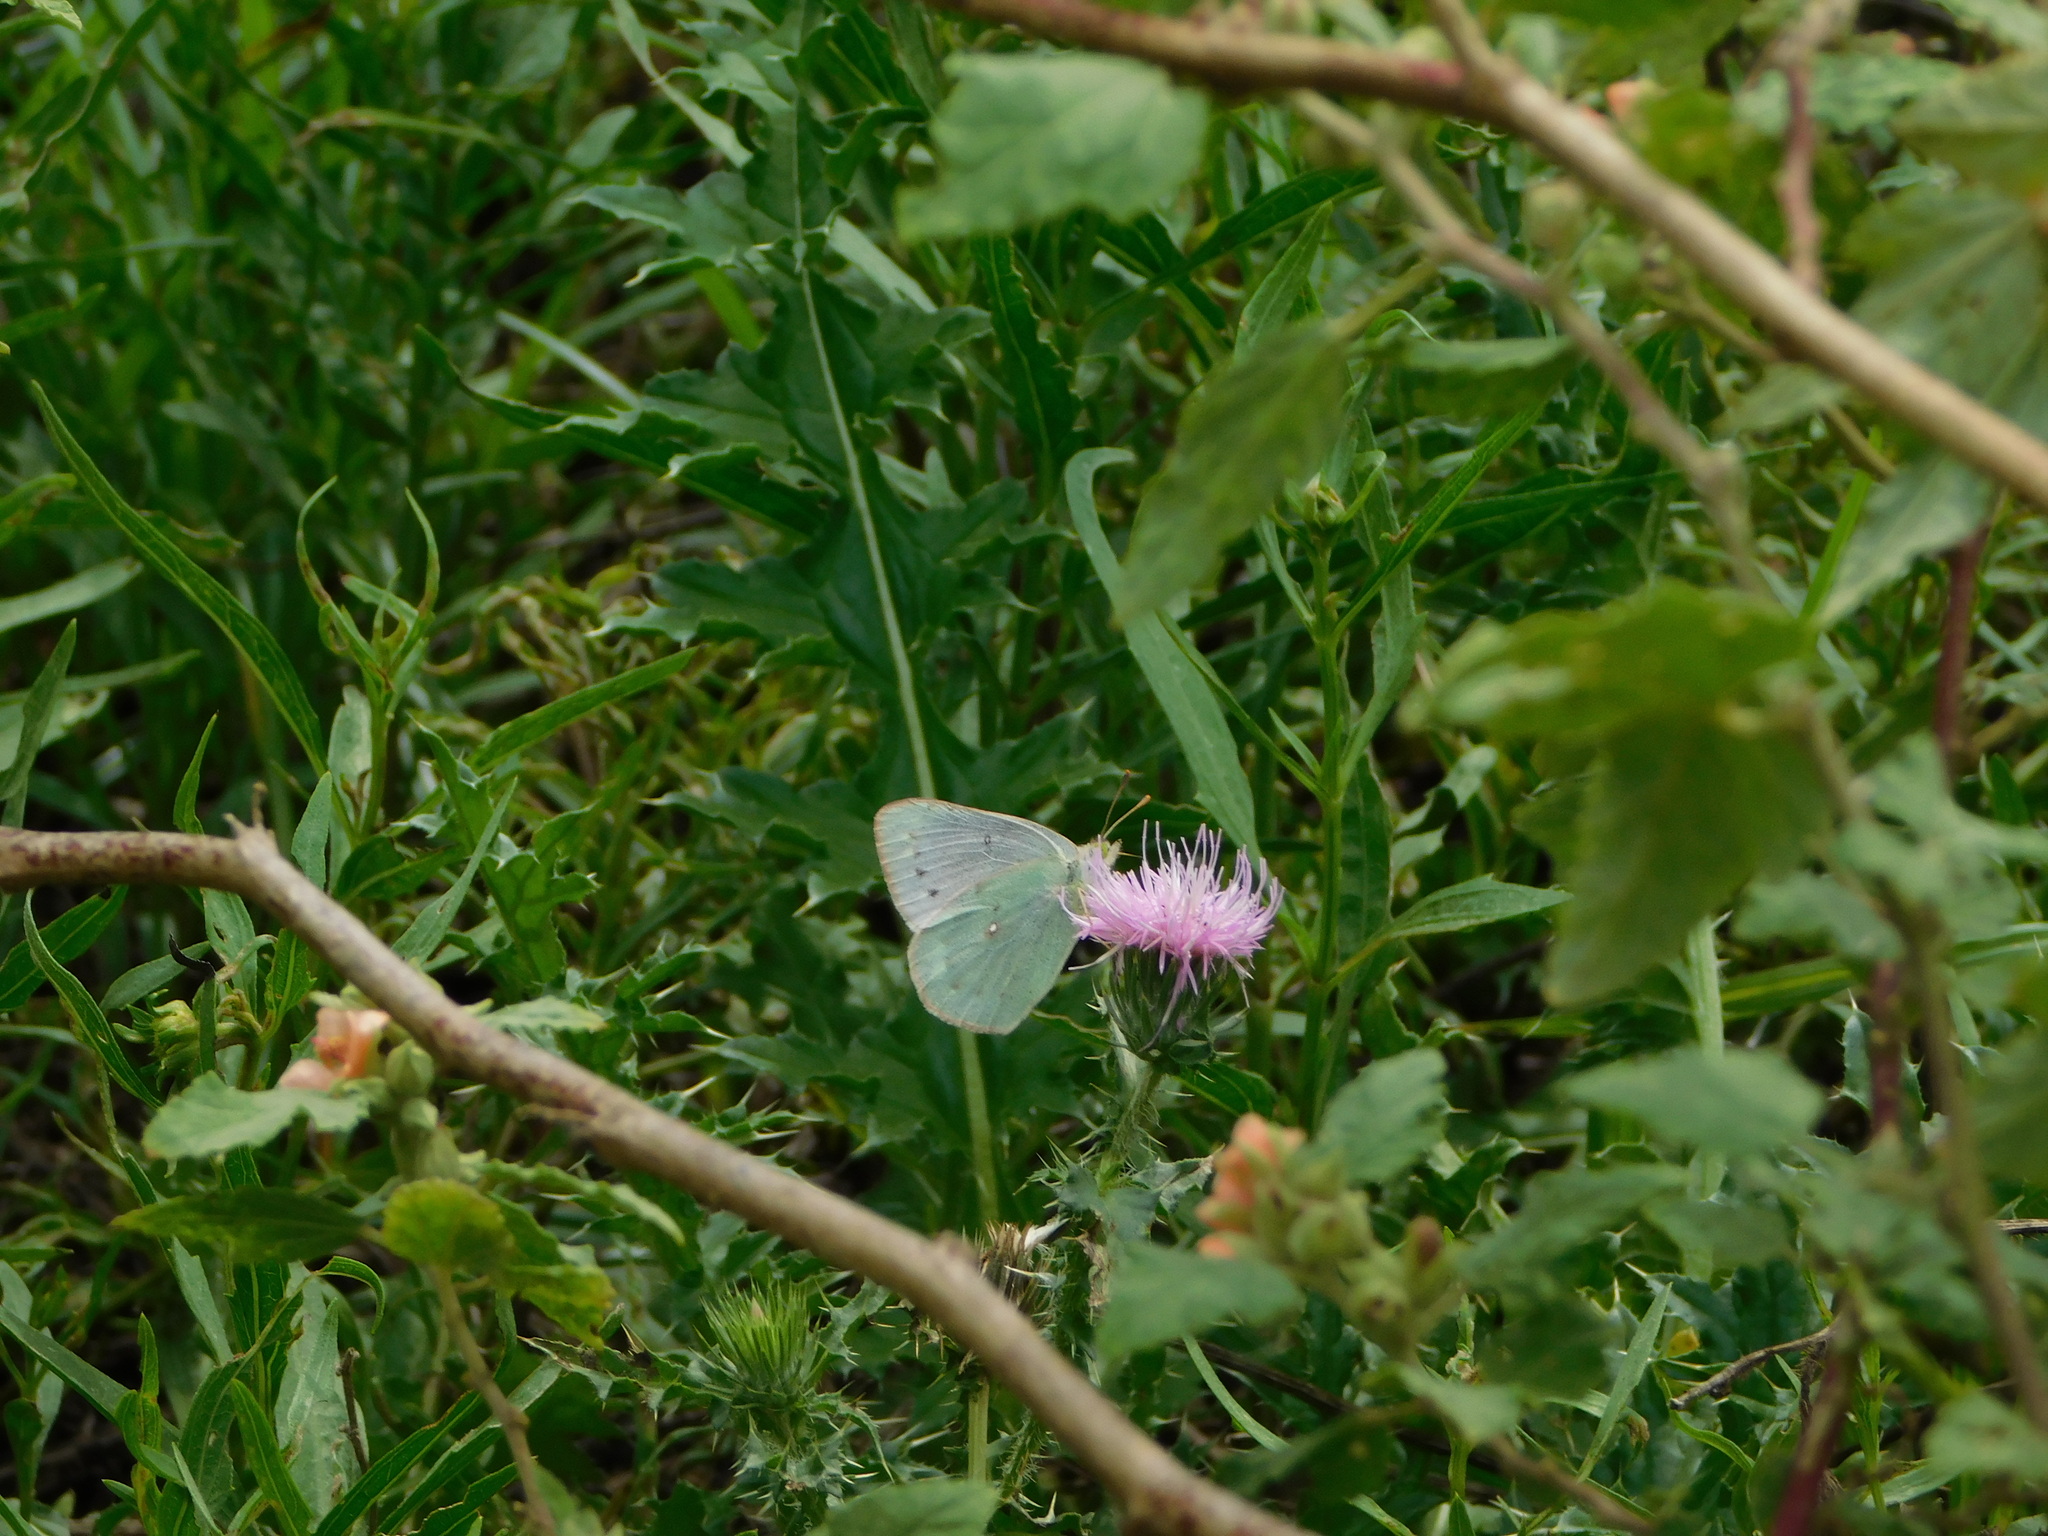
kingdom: Animalia
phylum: Arthropoda
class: Insecta
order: Lepidoptera
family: Pieridae
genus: Colias
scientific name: Colias lesbia
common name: Lesbia clouded yellow
